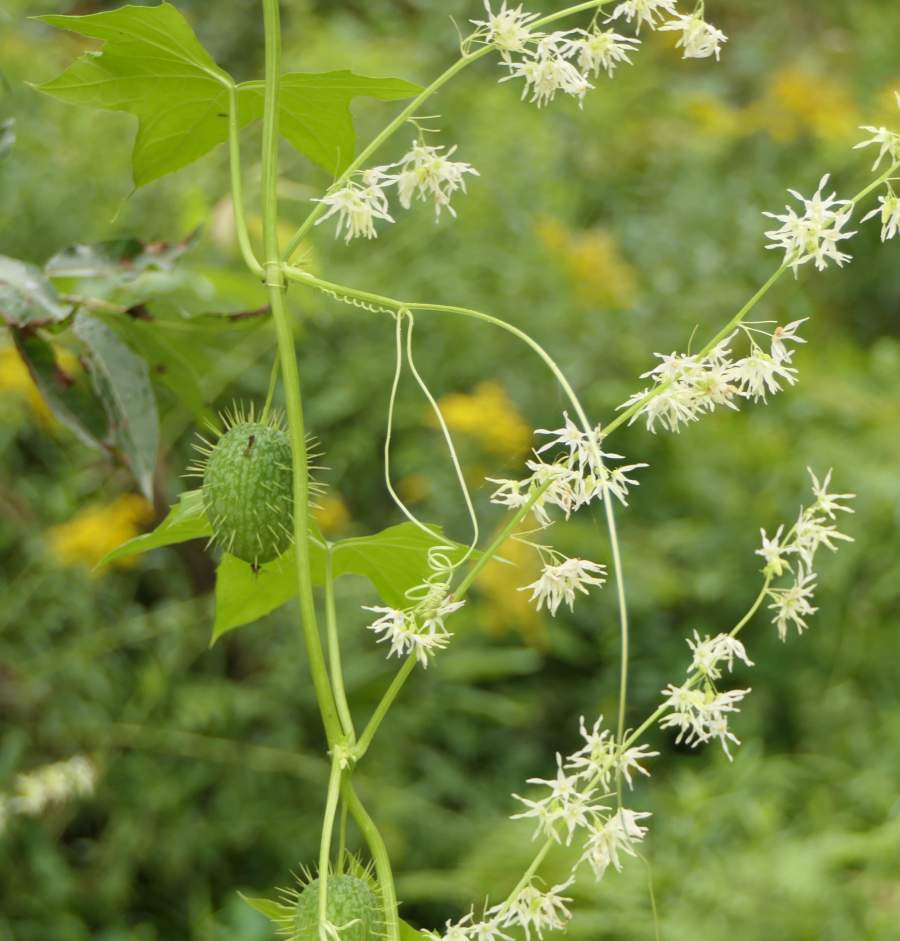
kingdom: Plantae
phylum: Tracheophyta
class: Magnoliopsida
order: Cucurbitales
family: Cucurbitaceae
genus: Echinocystis
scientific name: Echinocystis lobata
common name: Wild cucumber
